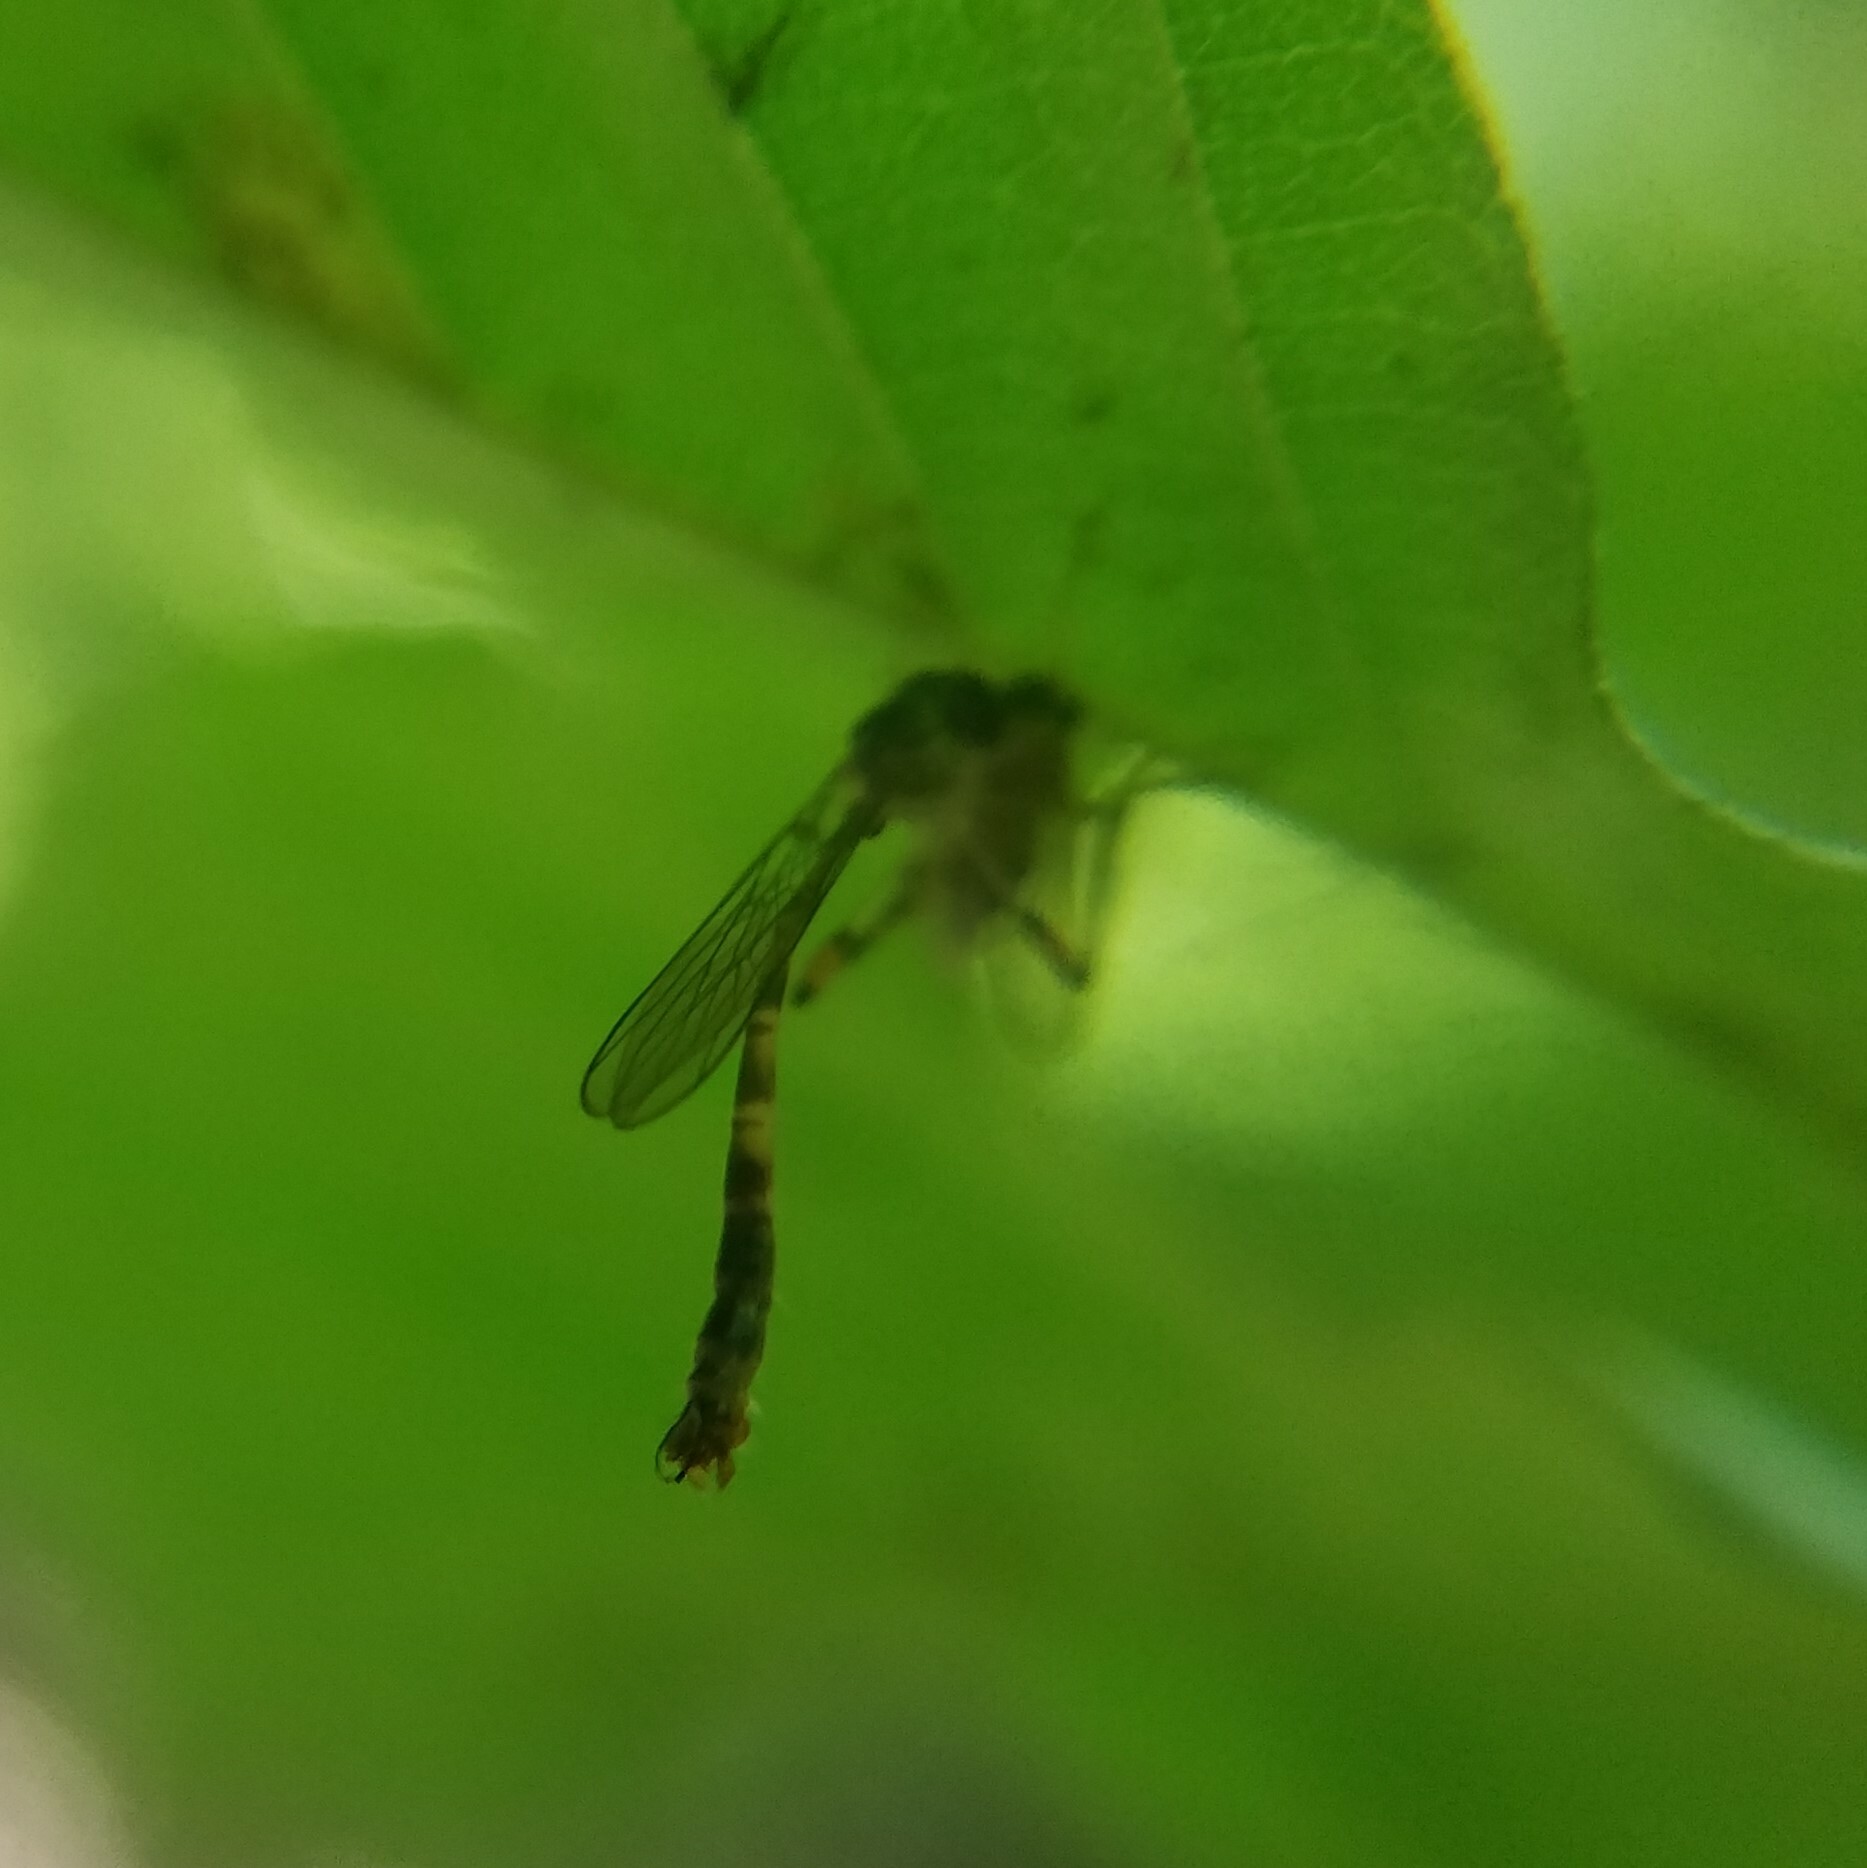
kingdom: Animalia
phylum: Arthropoda
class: Insecta
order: Diptera
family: Asilidae
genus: Psilonyx
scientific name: Psilonyx annulatus
